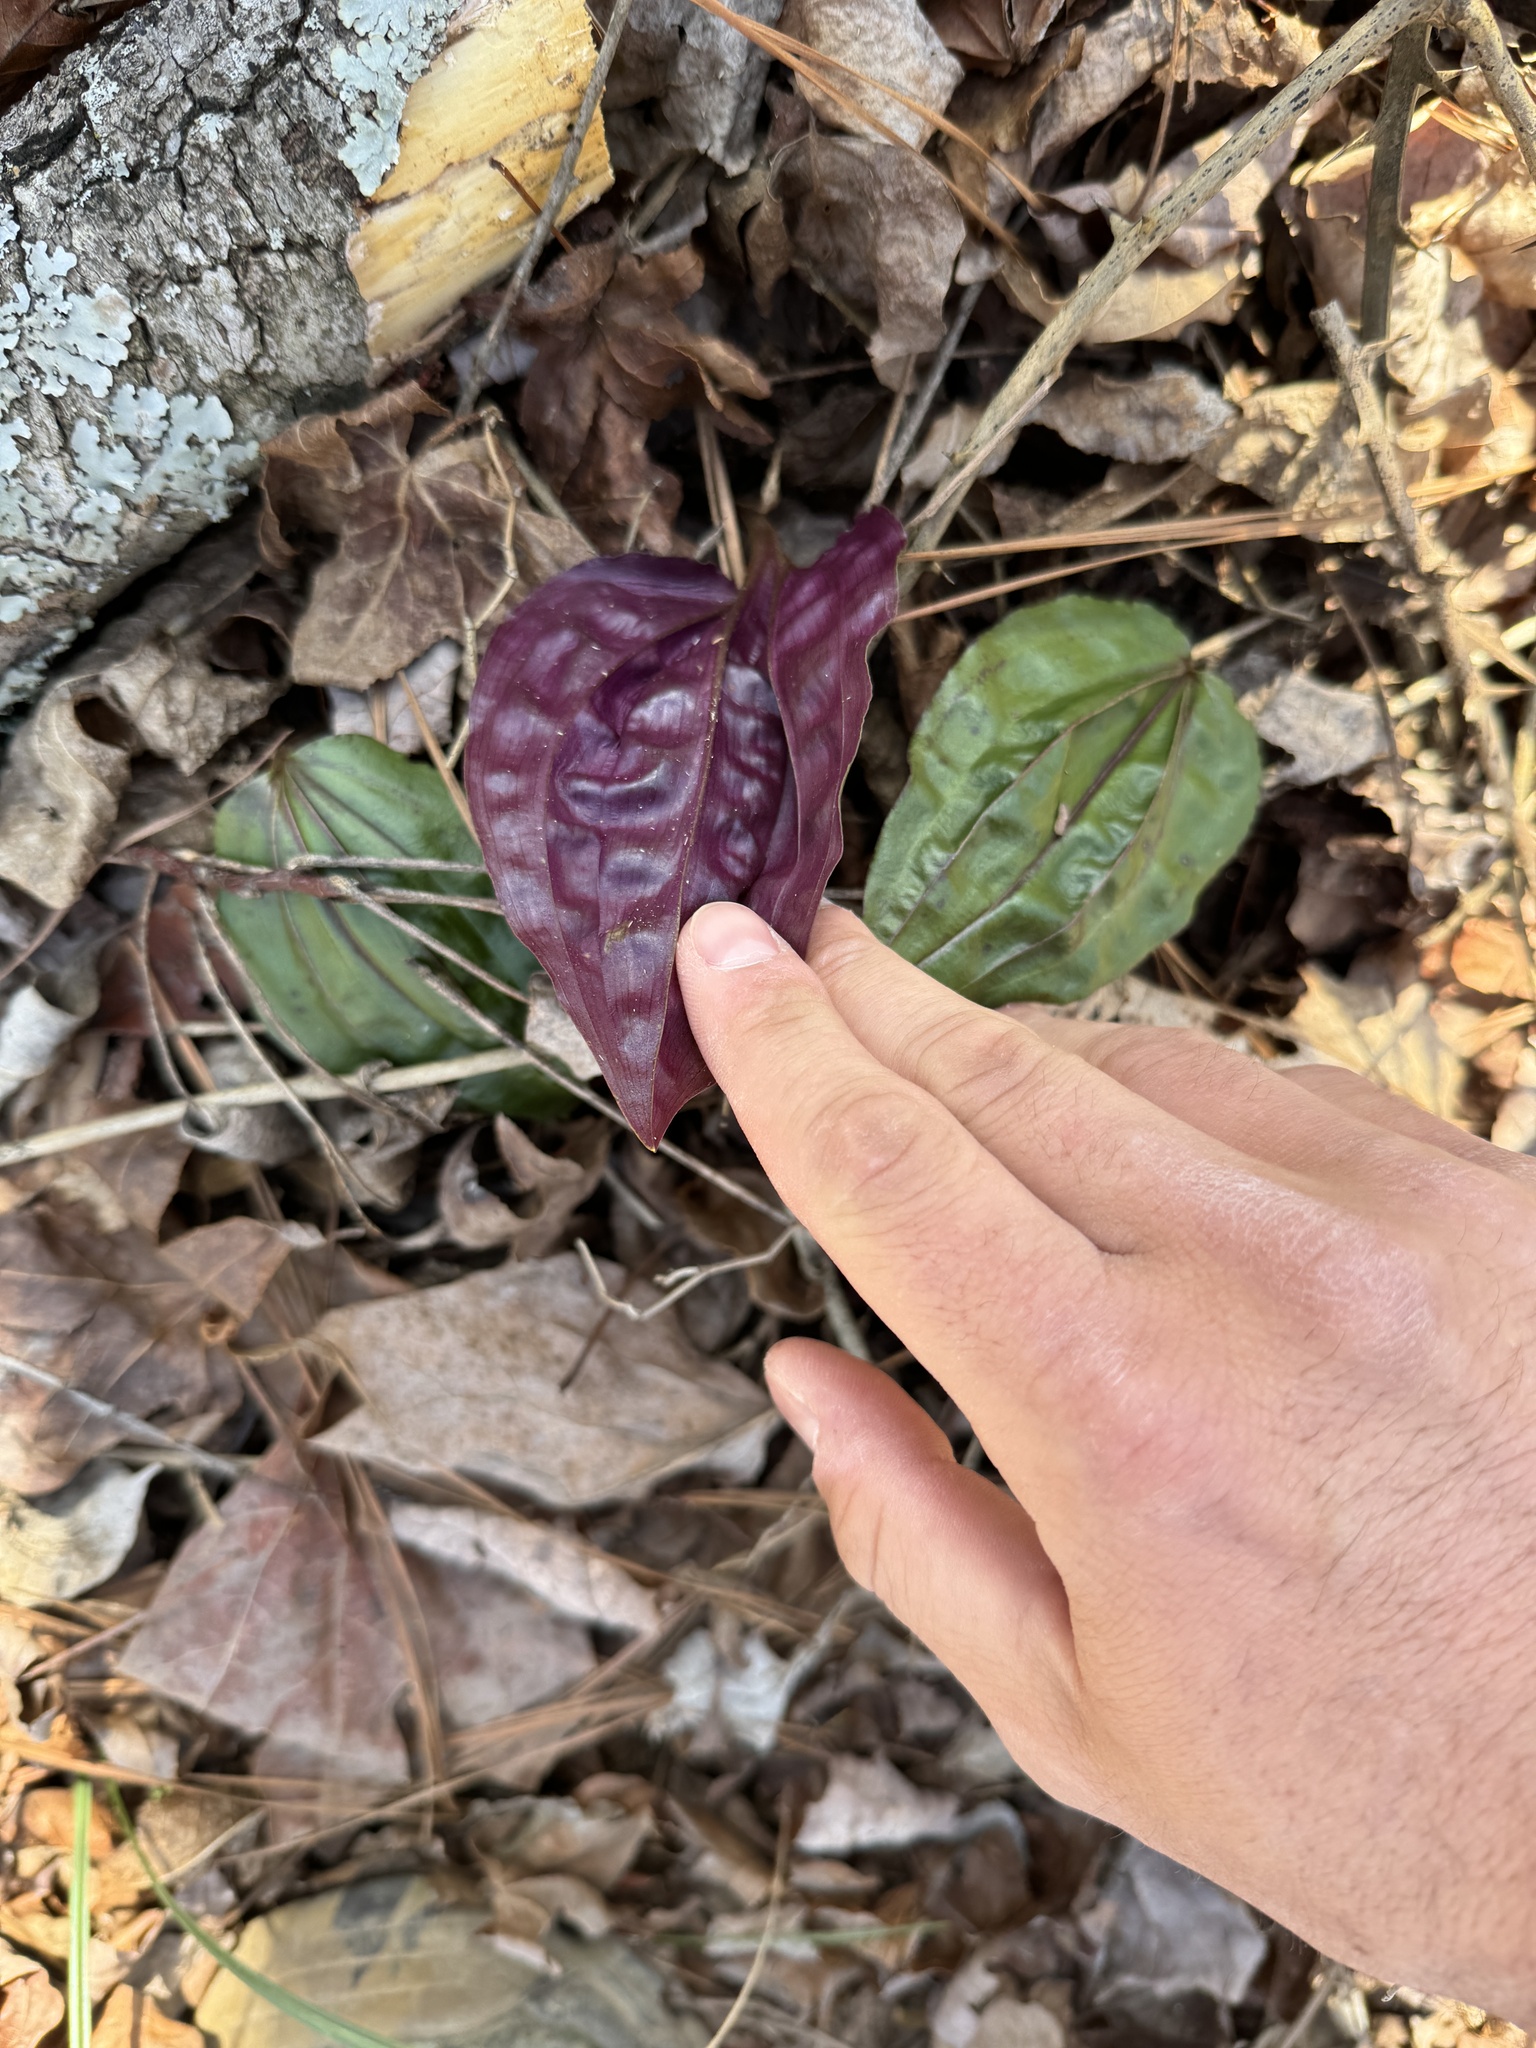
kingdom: Plantae
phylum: Tracheophyta
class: Liliopsida
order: Asparagales
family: Orchidaceae
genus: Tipularia
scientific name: Tipularia discolor
